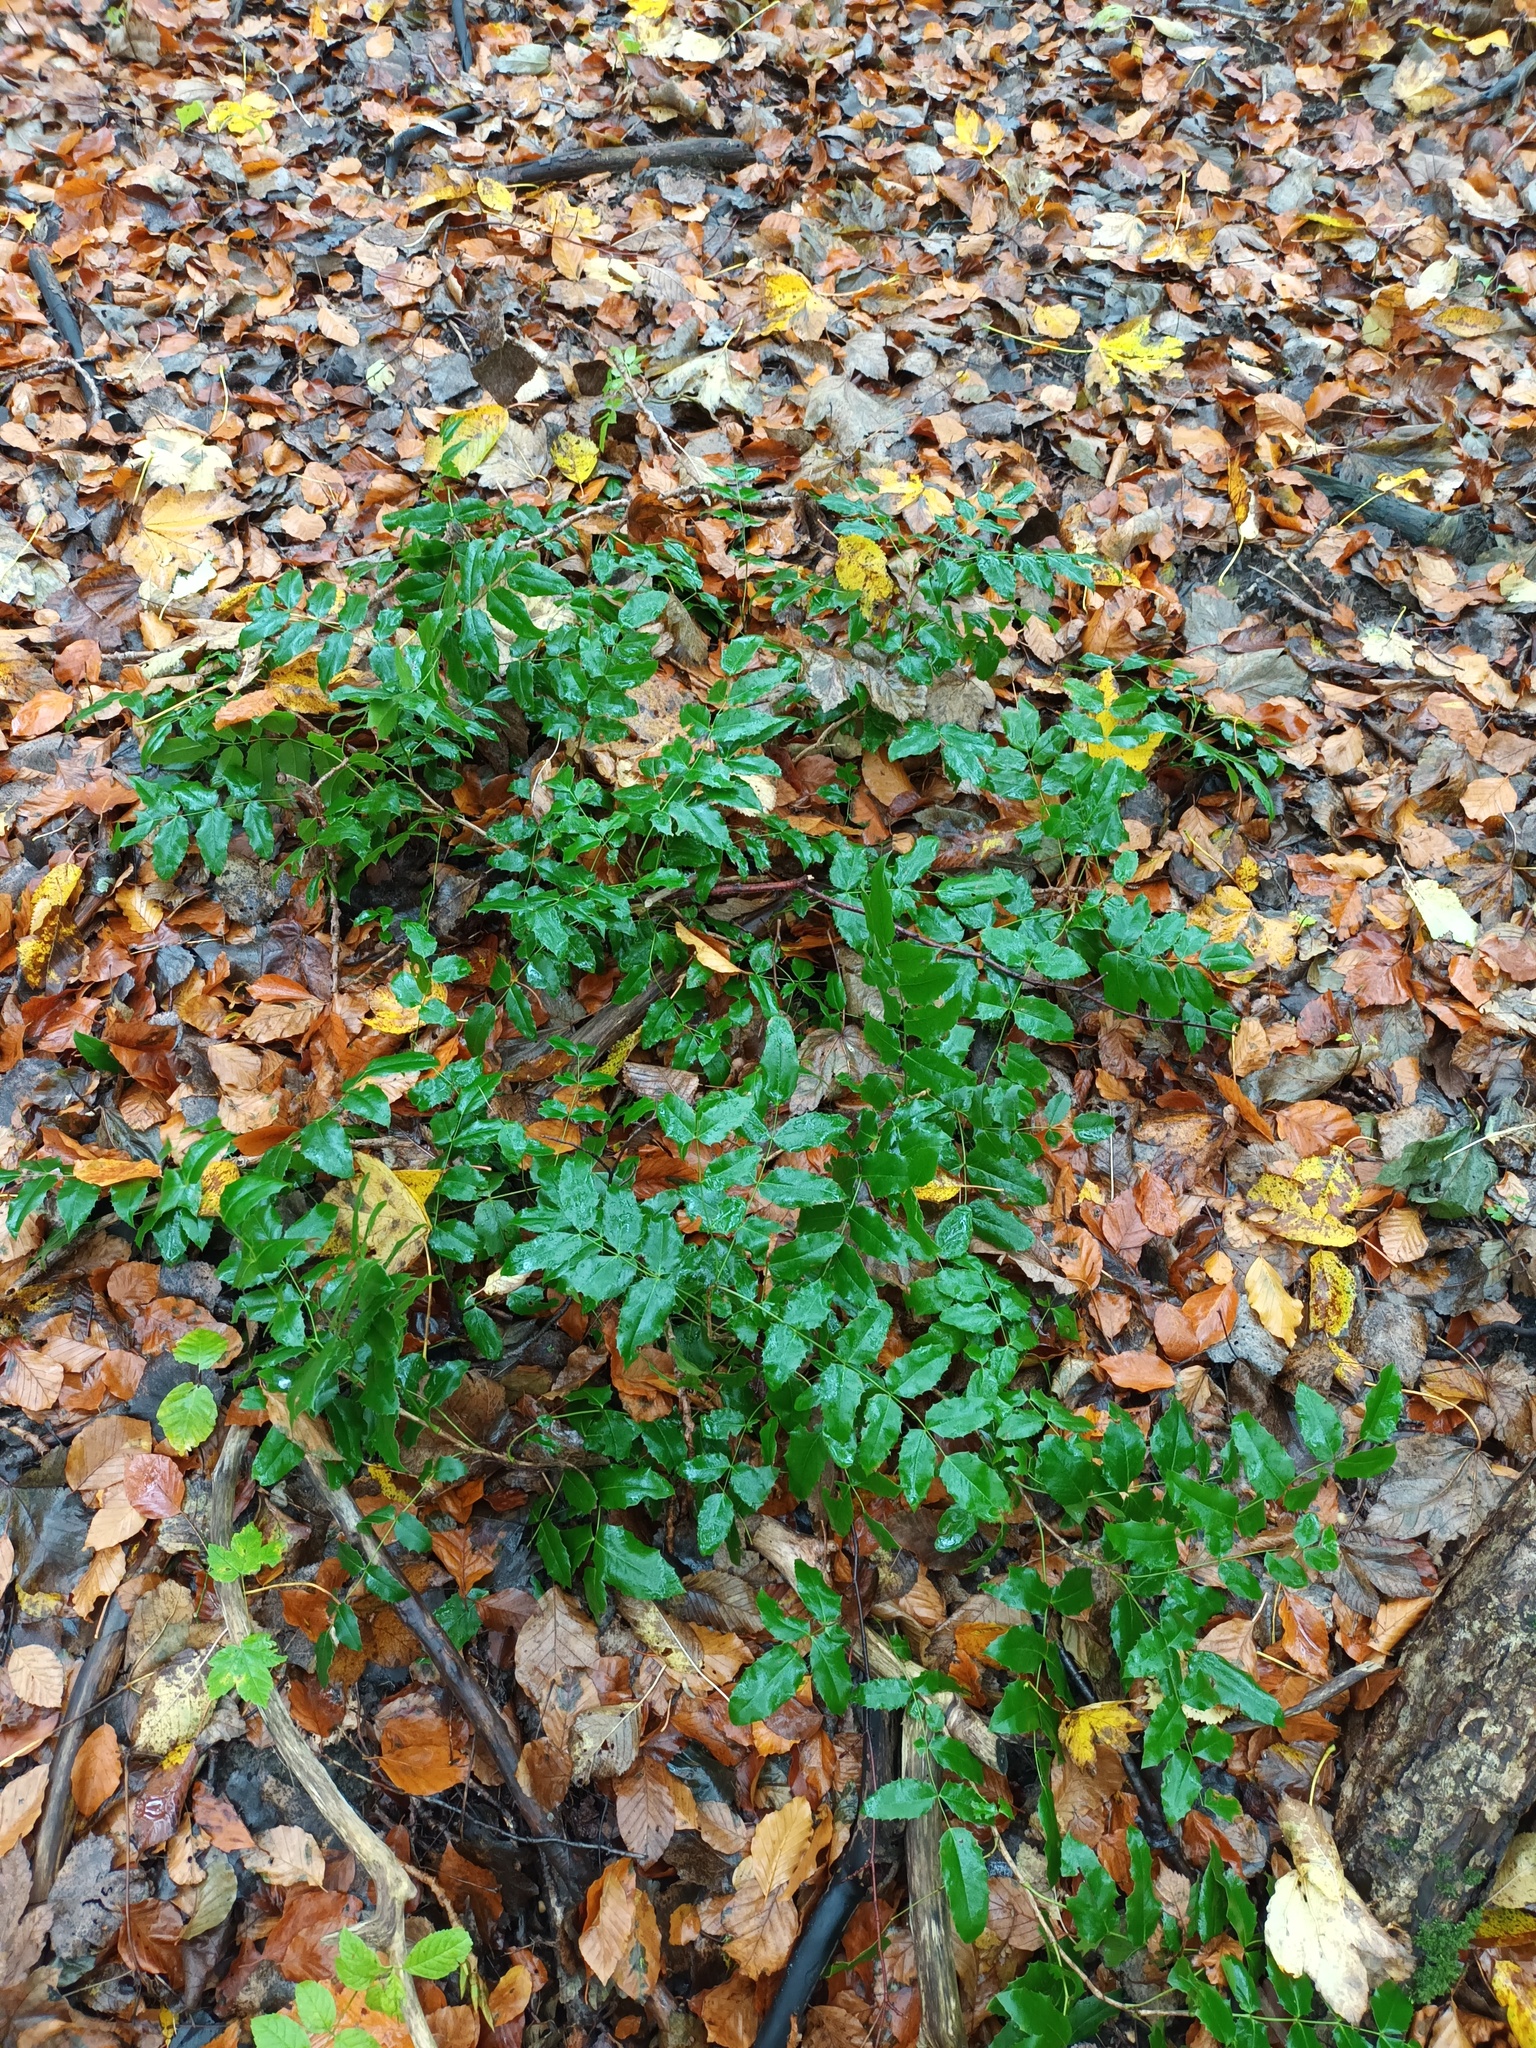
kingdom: Plantae
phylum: Tracheophyta
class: Magnoliopsida
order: Ranunculales
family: Berberidaceae
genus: Mahonia
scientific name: Mahonia aquifolium
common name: Oregon-grape
